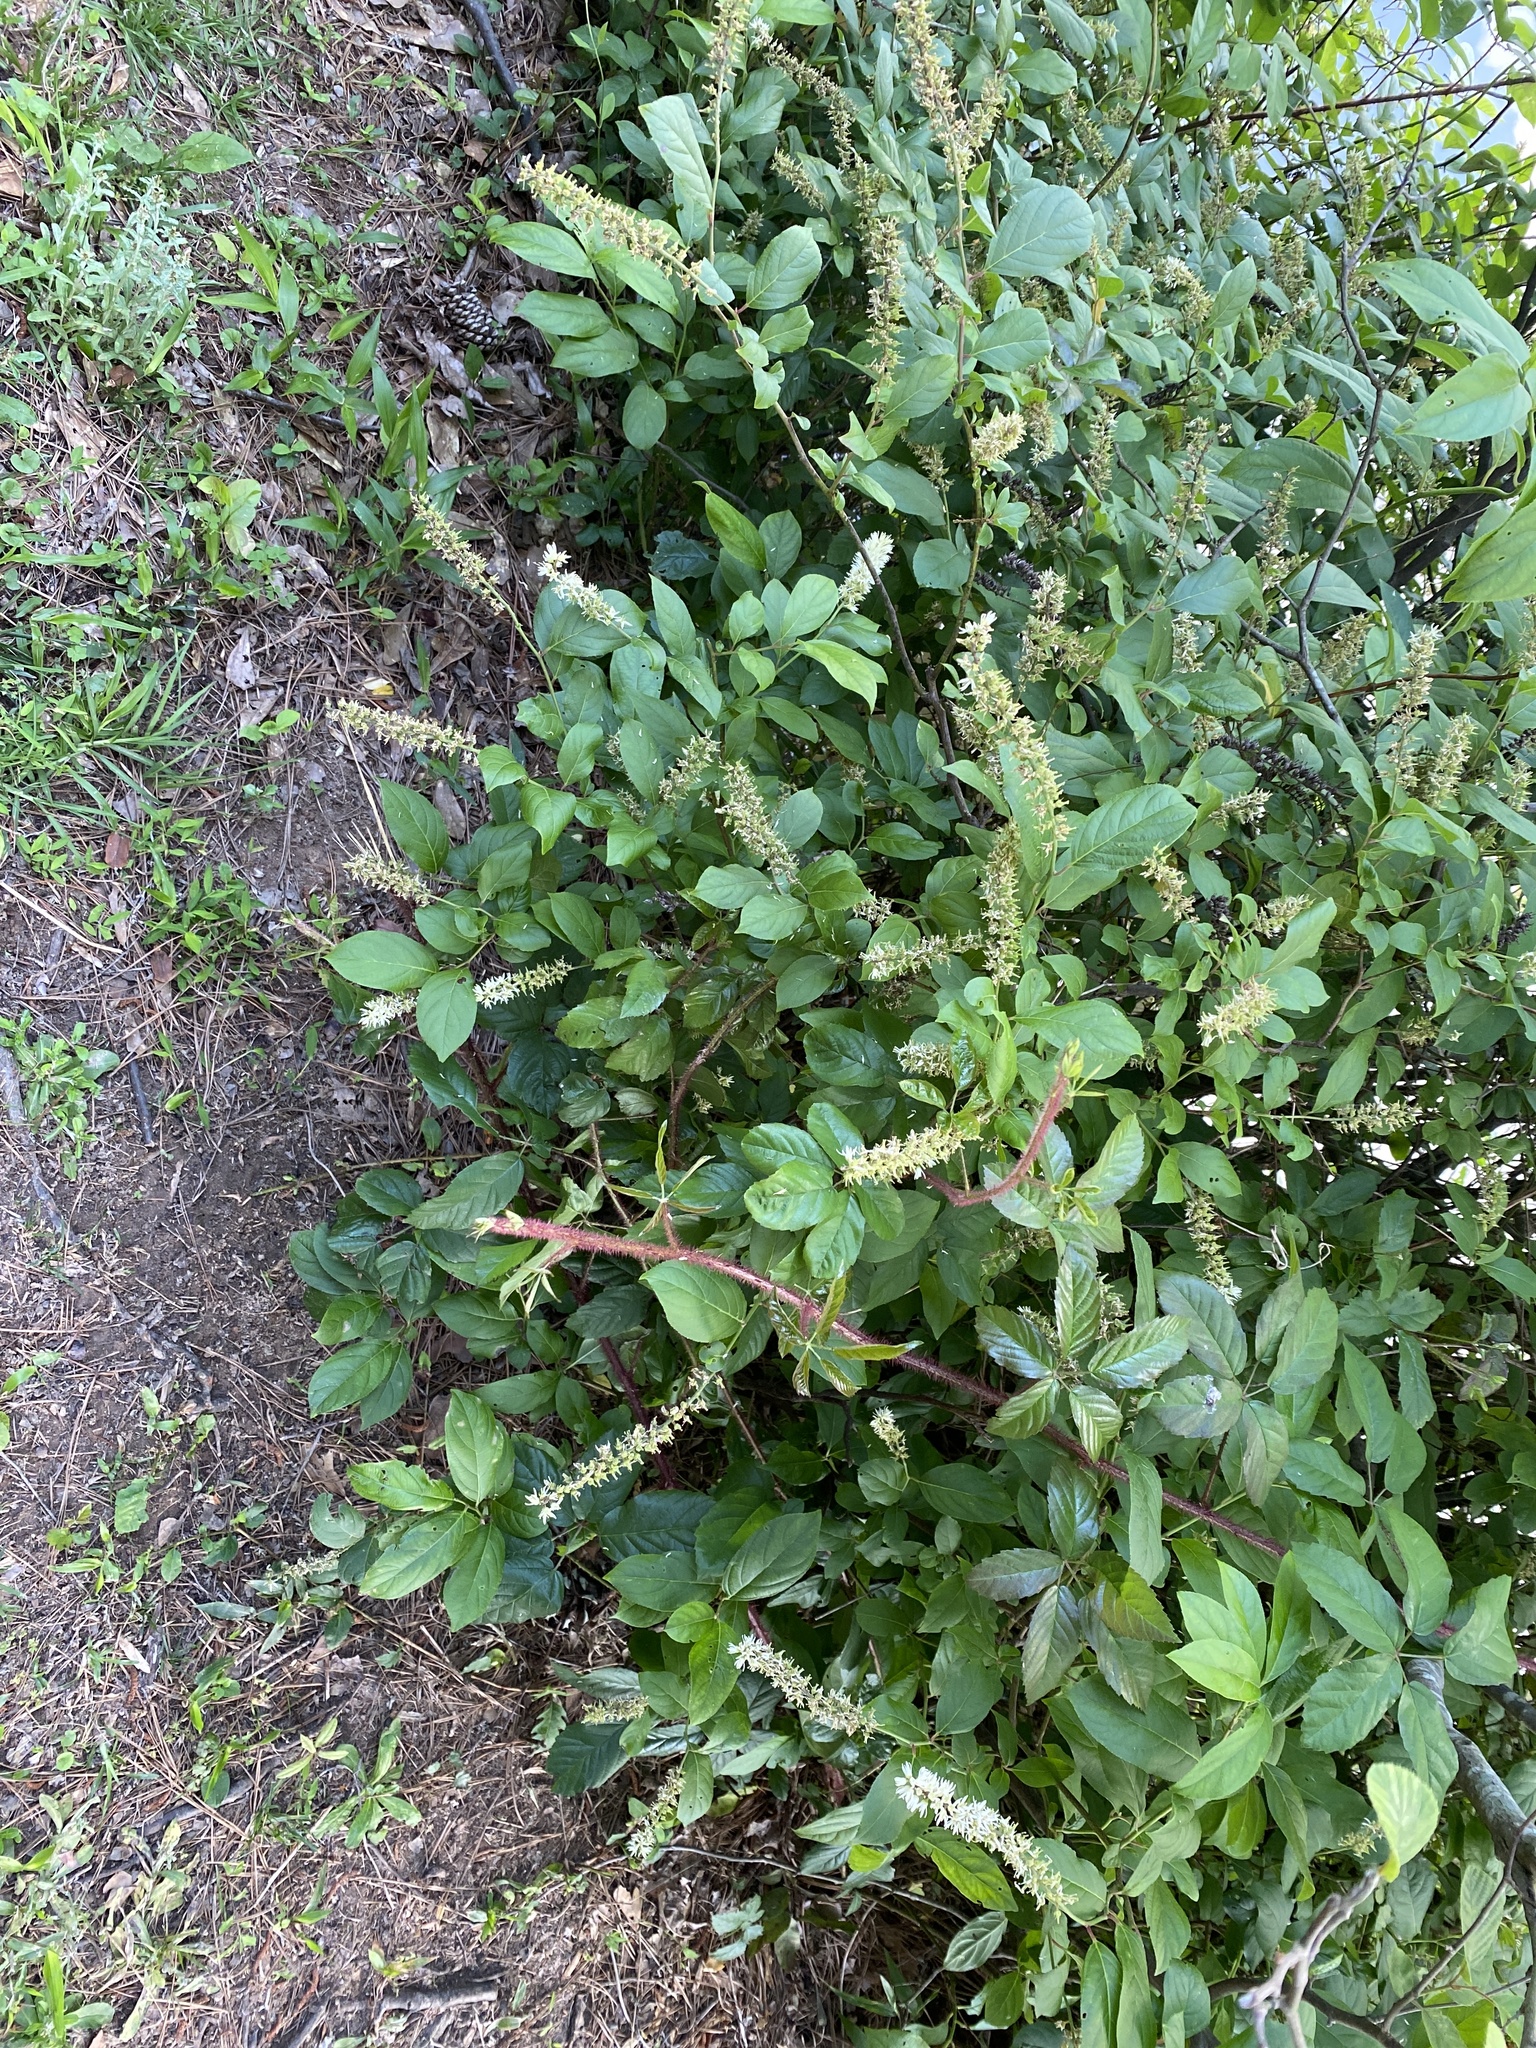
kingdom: Plantae
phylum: Tracheophyta
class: Magnoliopsida
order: Saxifragales
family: Iteaceae
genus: Itea
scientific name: Itea virginica
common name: Sweetspire
